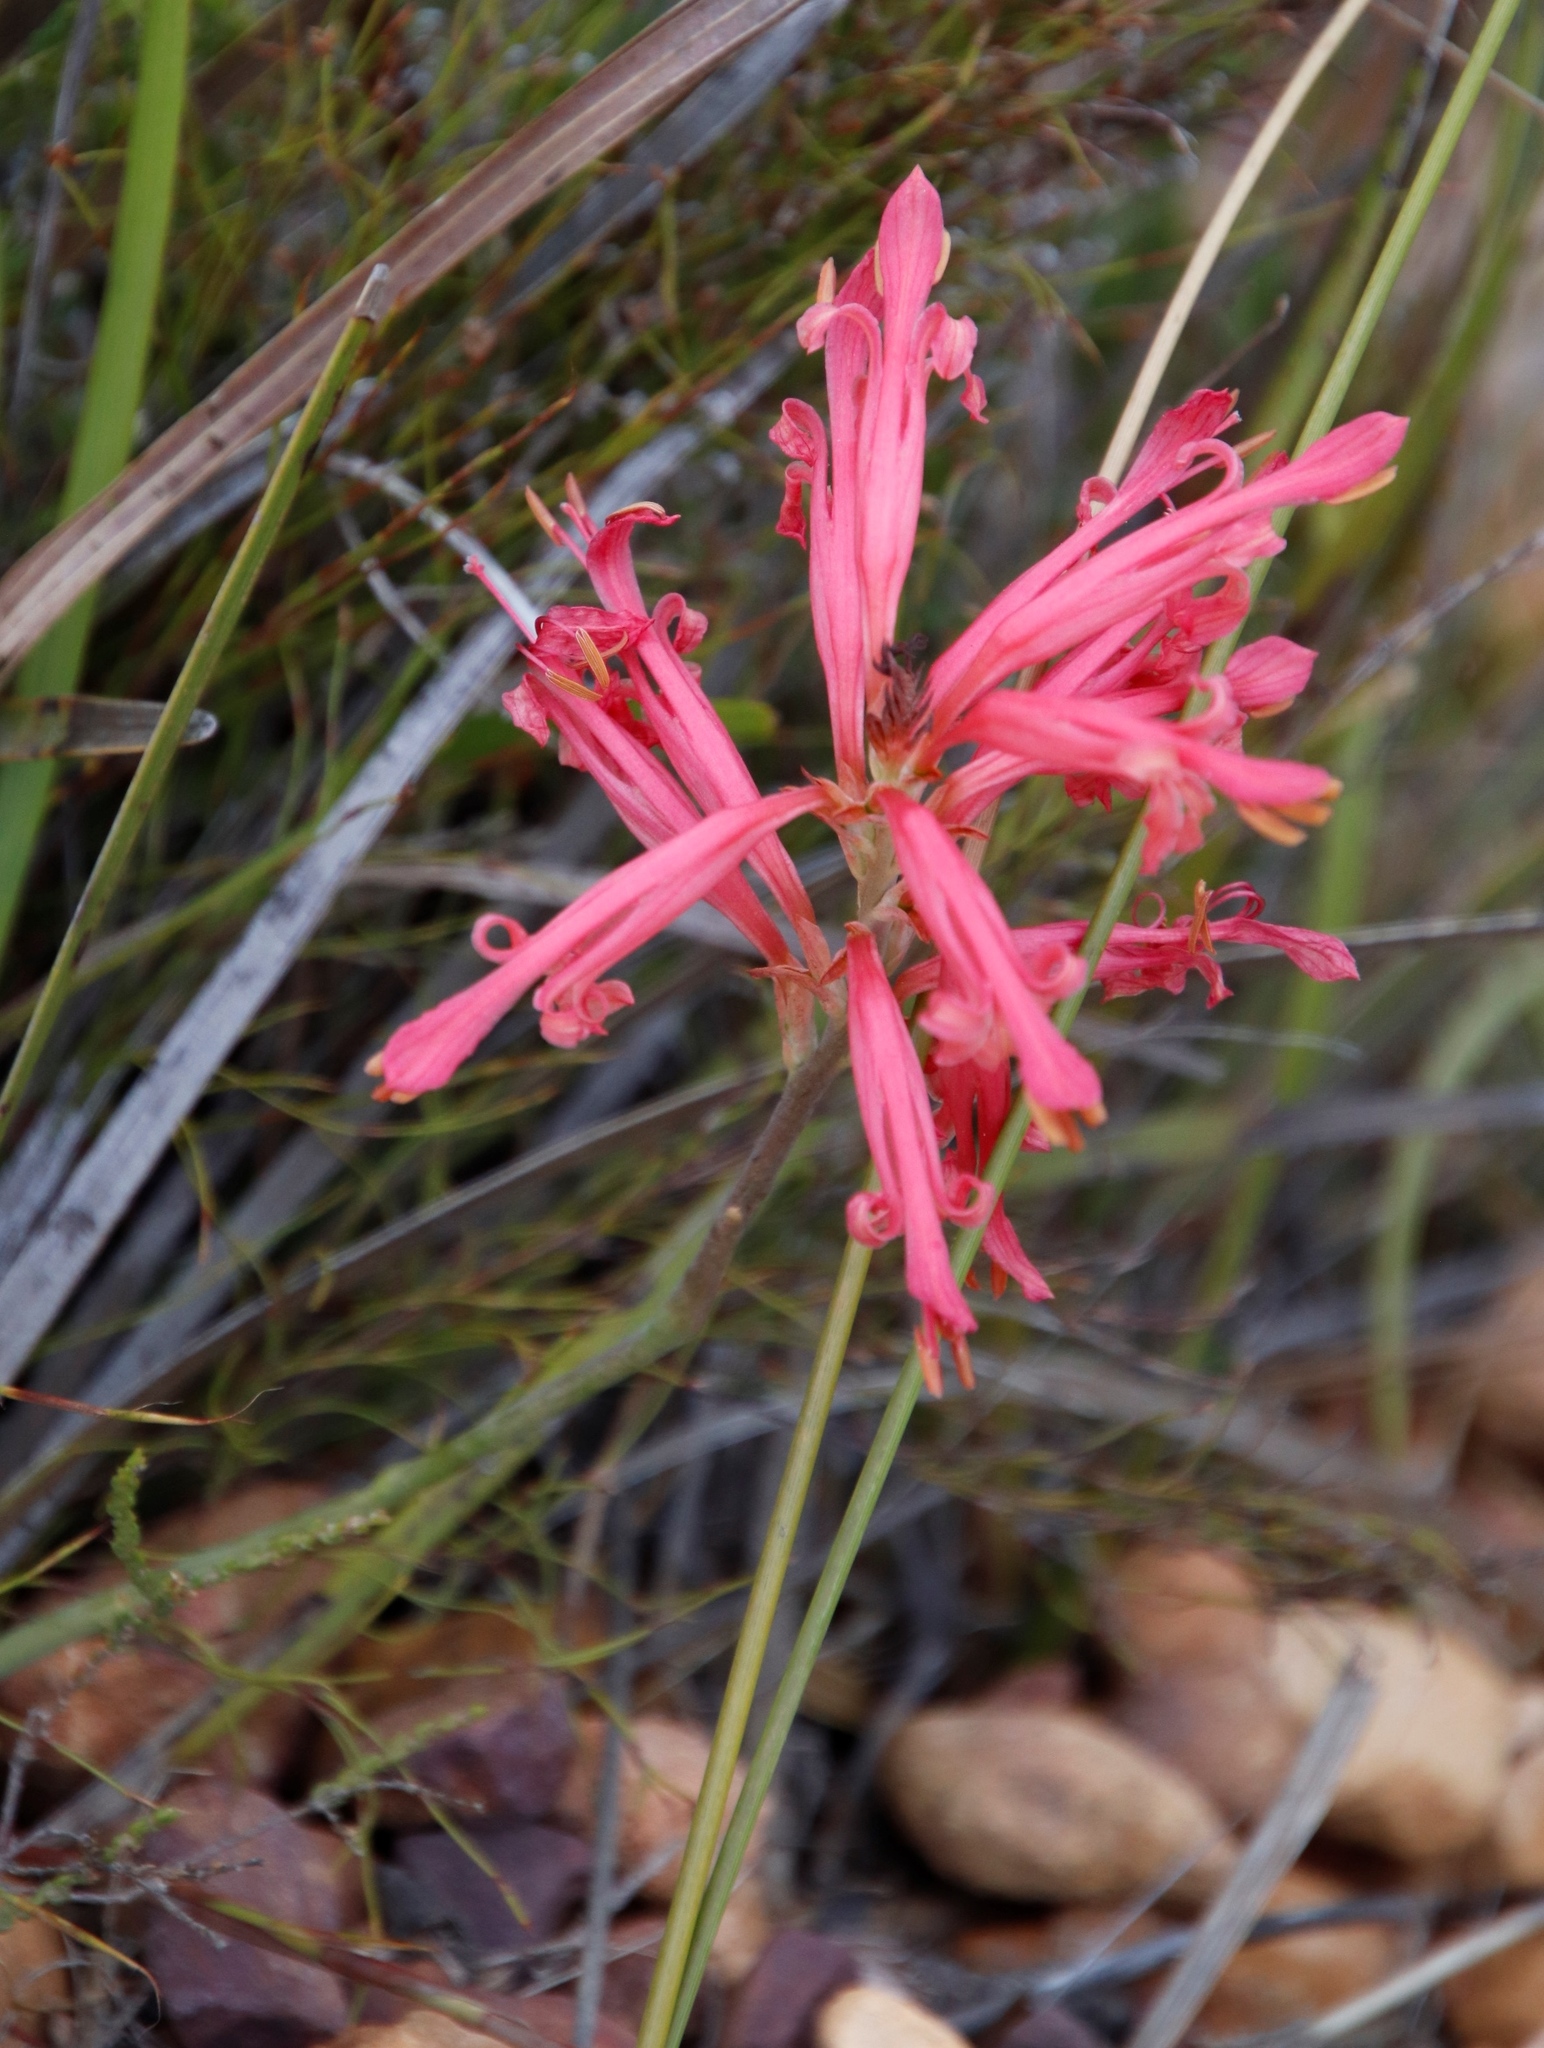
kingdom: Plantae
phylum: Tracheophyta
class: Liliopsida
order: Asparagales
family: Iridaceae
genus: Tritoniopsis
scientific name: Tritoniopsis antholyza
